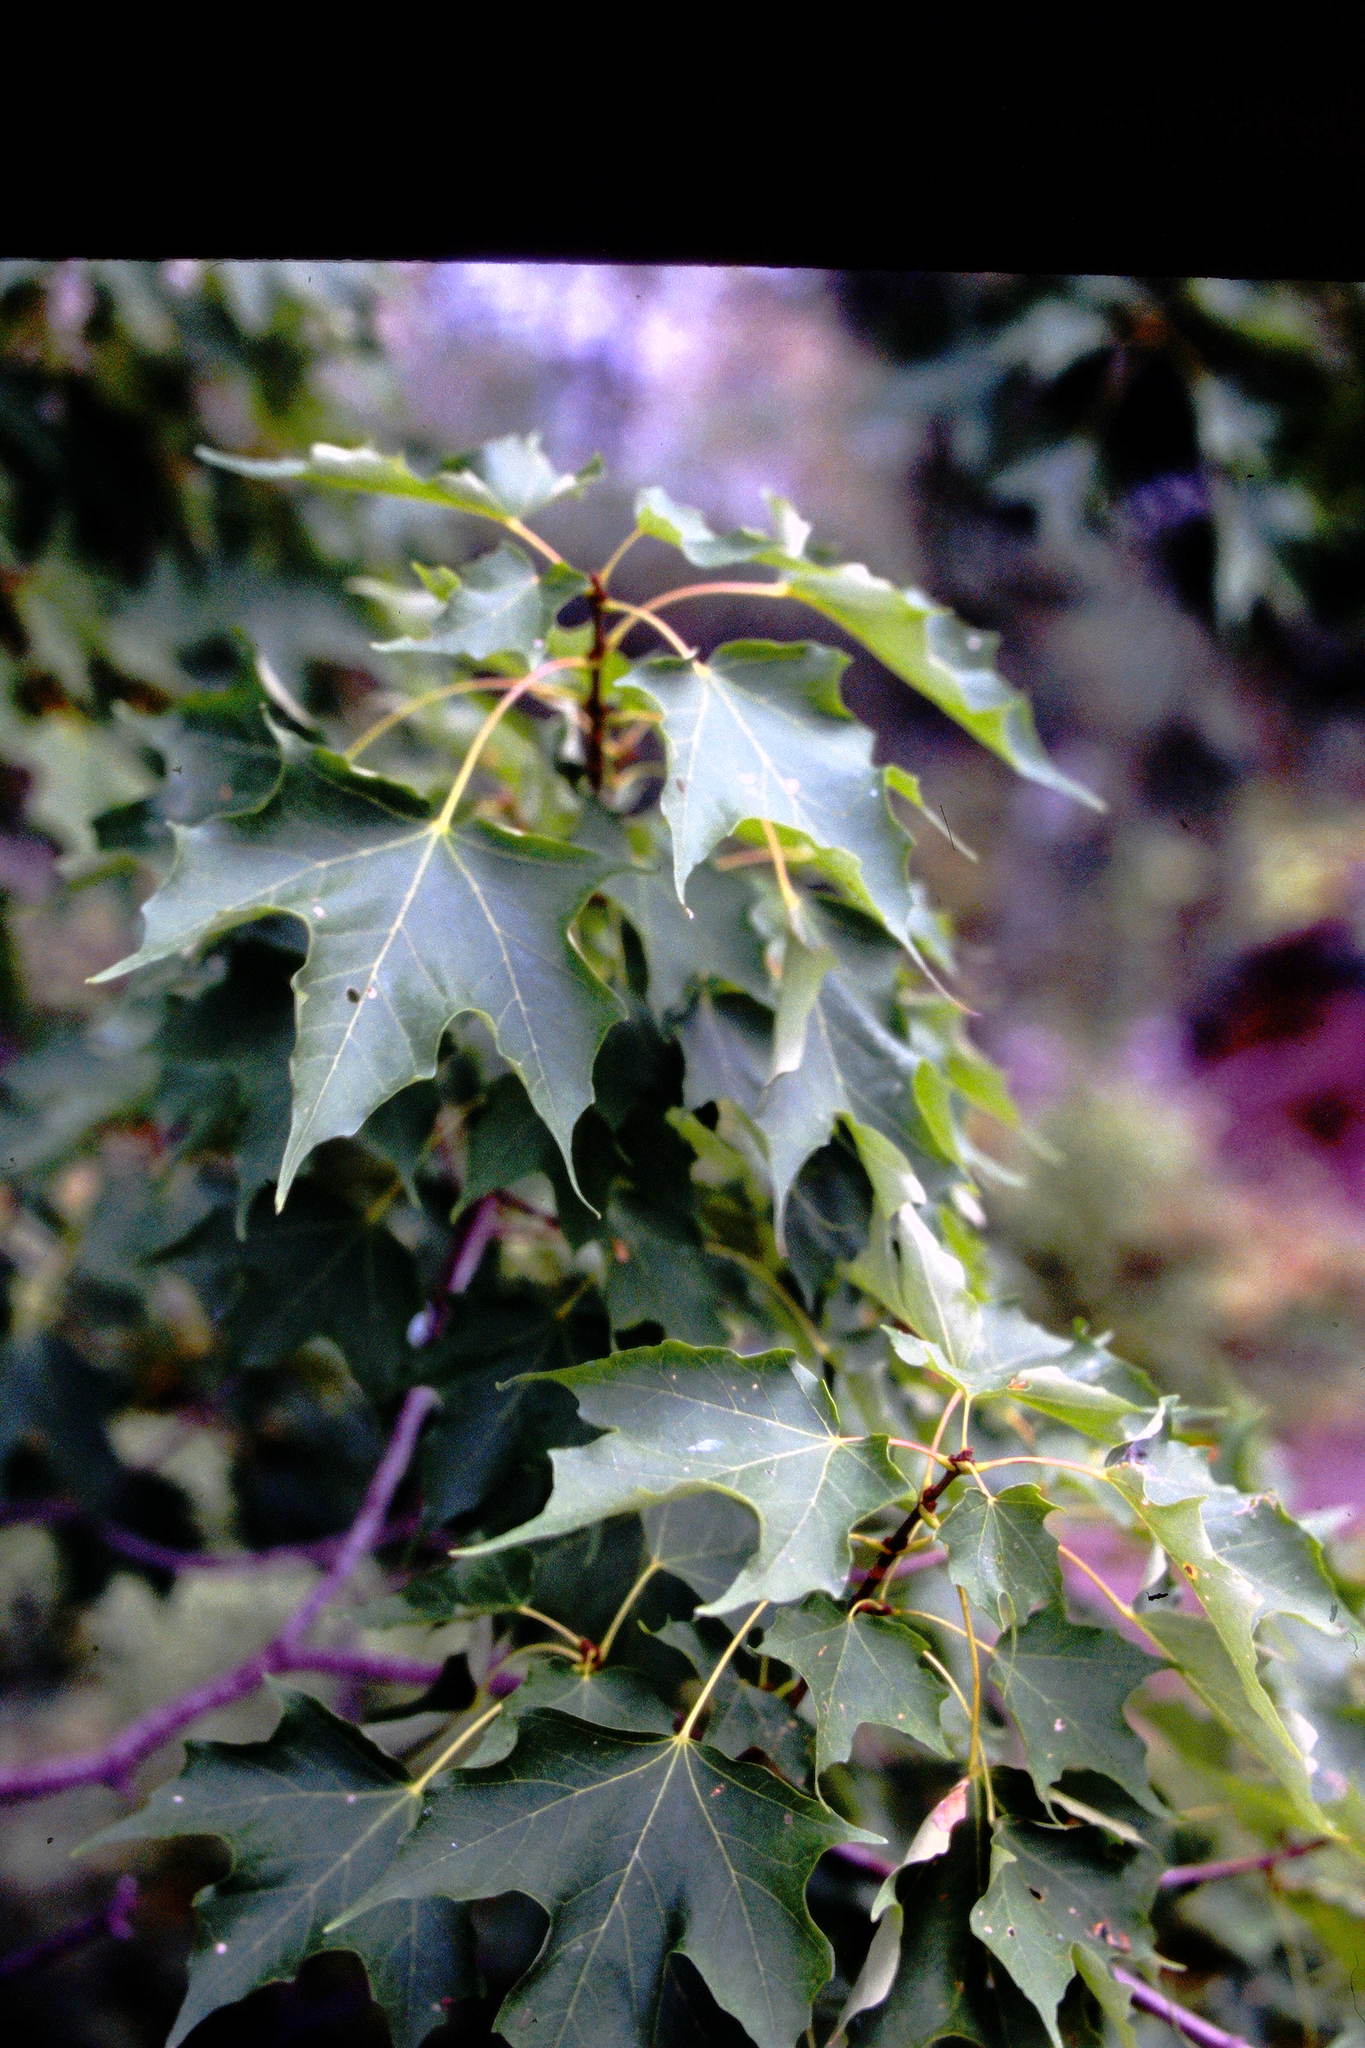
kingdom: Plantae
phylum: Tracheophyta
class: Magnoliopsida
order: Sapindales
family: Sapindaceae
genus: Acer
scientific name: Acer saccharum
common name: Sugar maple
